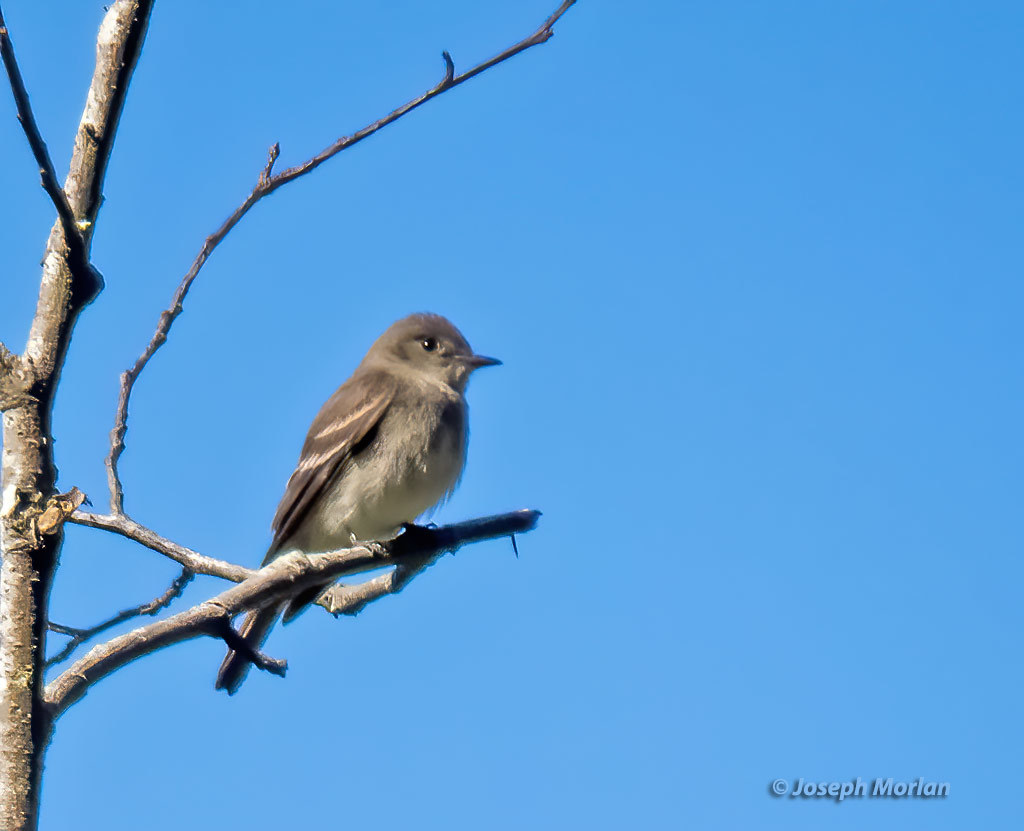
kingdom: Animalia
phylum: Chordata
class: Aves
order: Passeriformes
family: Tyrannidae
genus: Contopus
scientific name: Contopus sordidulus
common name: Western wood-pewee
